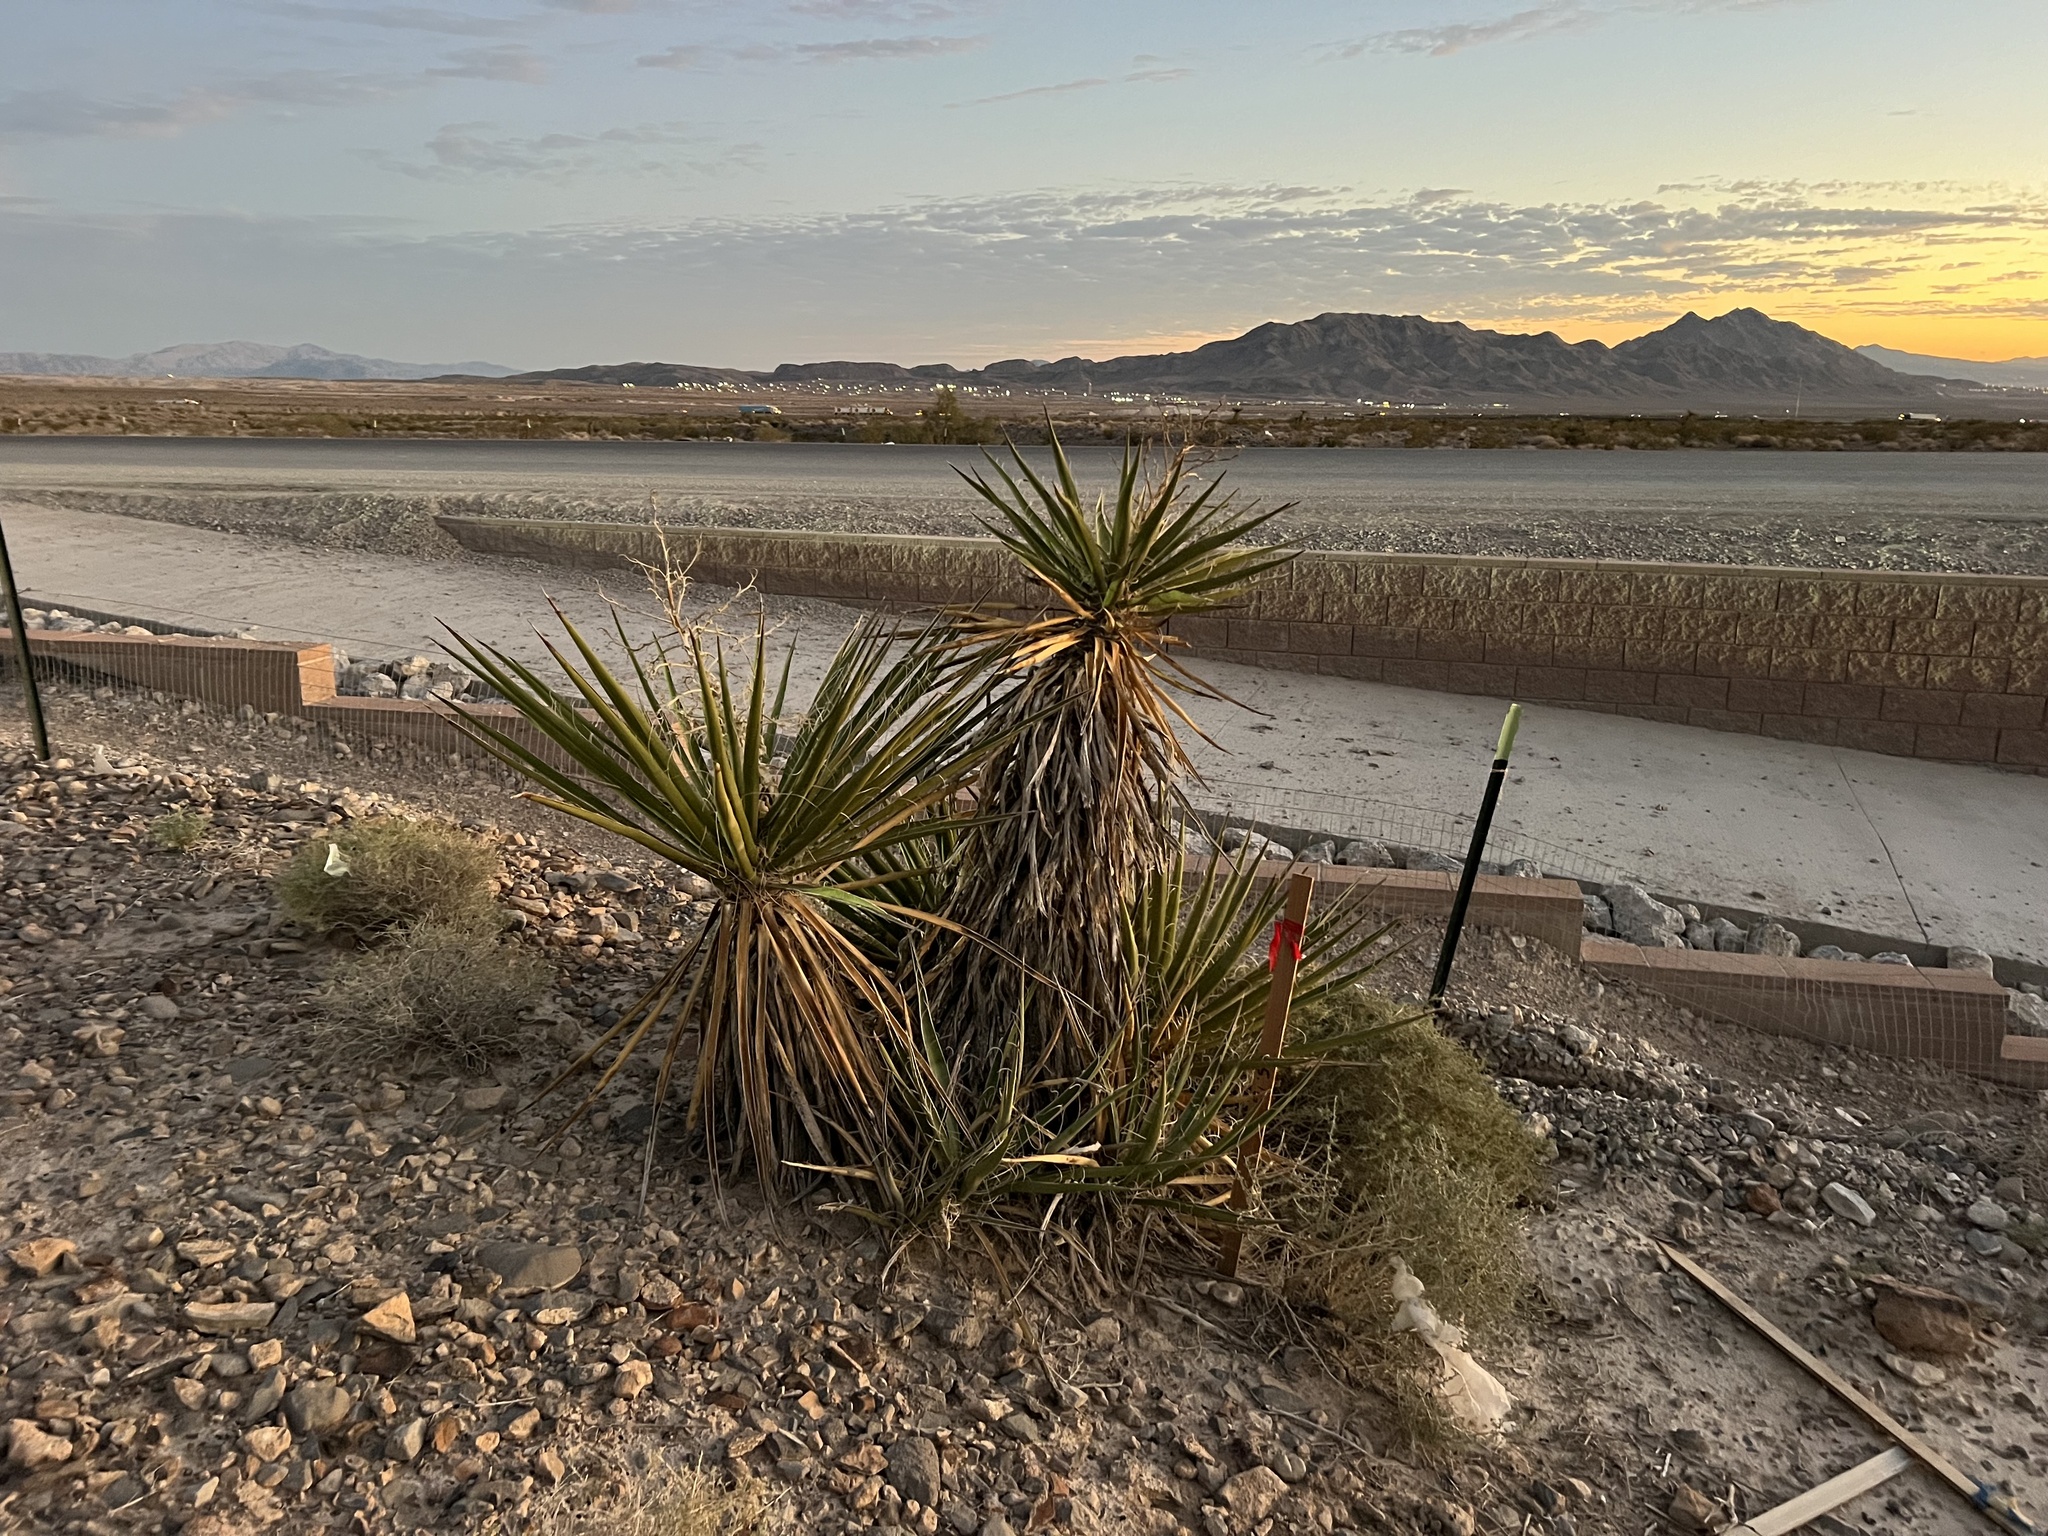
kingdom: Plantae
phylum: Tracheophyta
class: Liliopsida
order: Asparagales
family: Asparagaceae
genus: Yucca
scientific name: Yucca schidigera
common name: Mojave yucca
